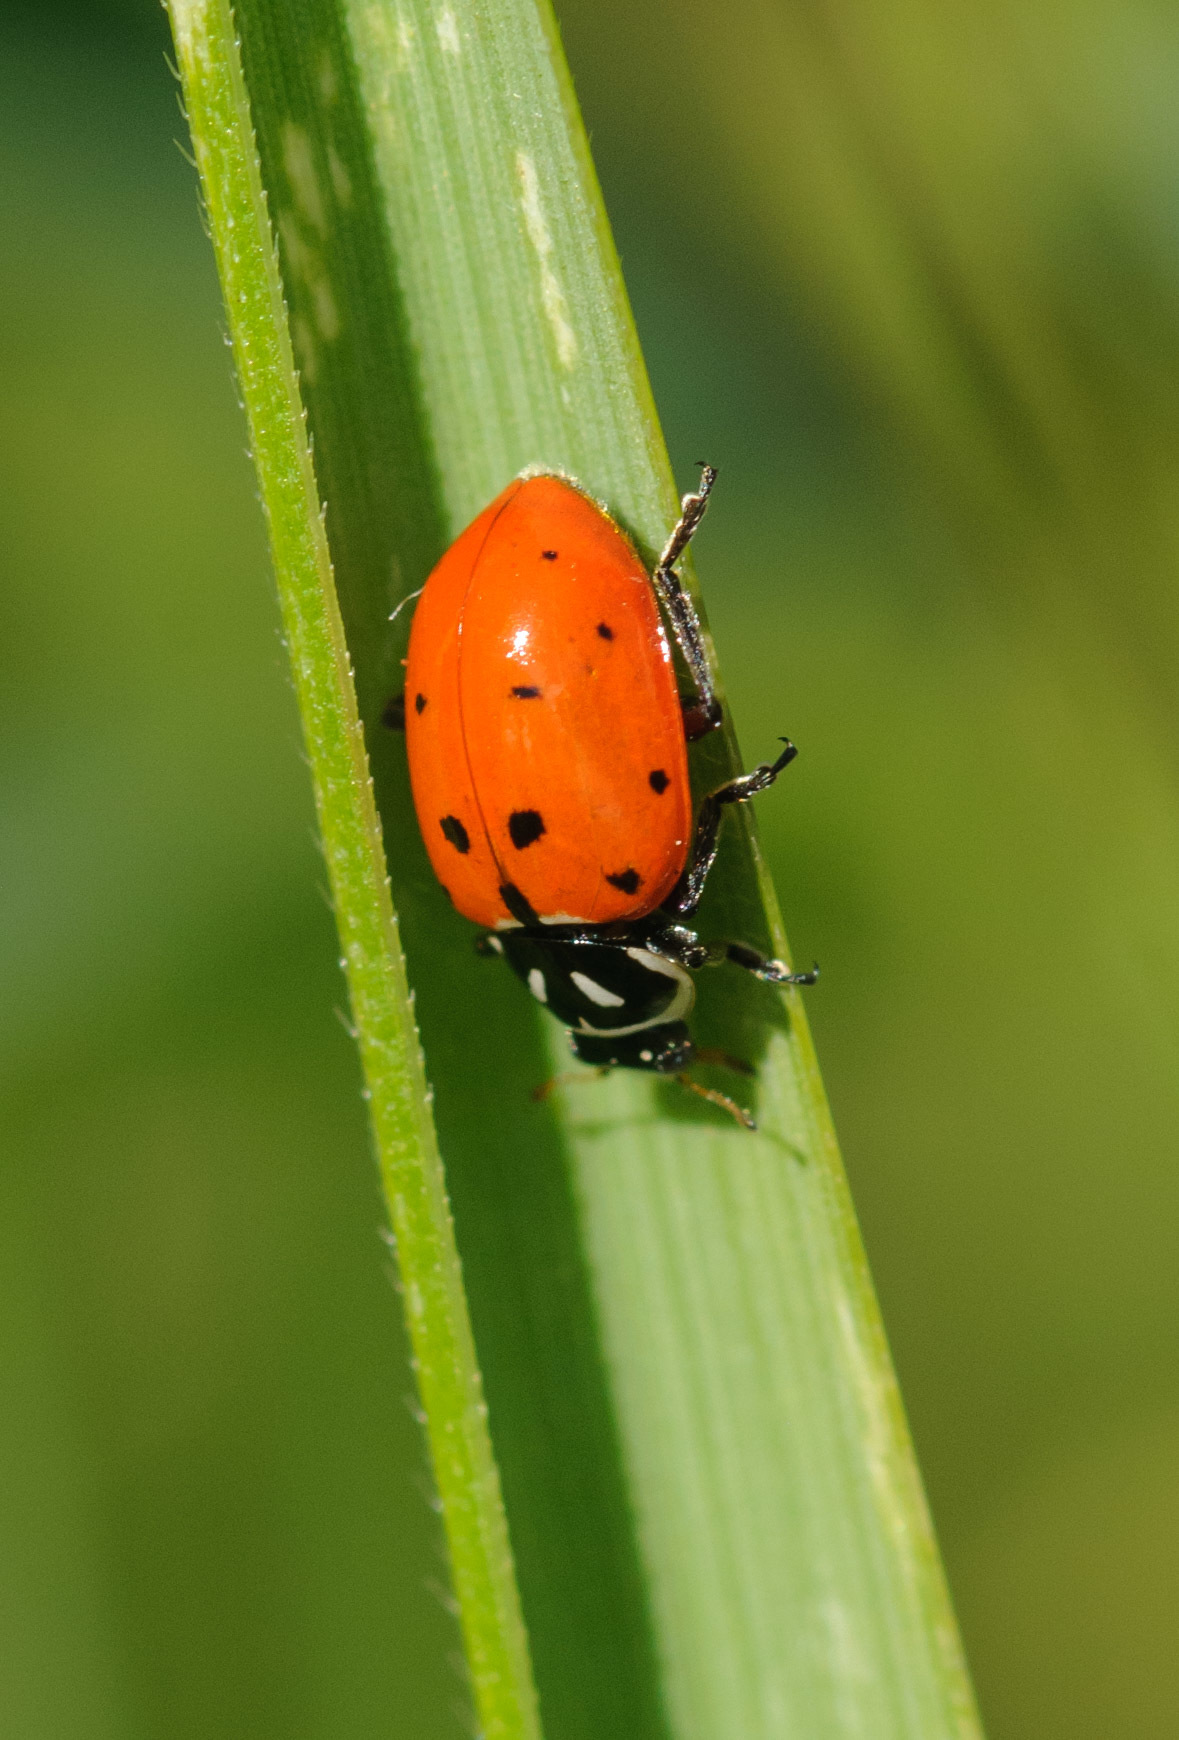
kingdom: Animalia
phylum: Arthropoda
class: Insecta
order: Coleoptera
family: Coccinellidae
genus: Hippodamia
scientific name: Hippodamia convergens
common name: Convergent lady beetle
